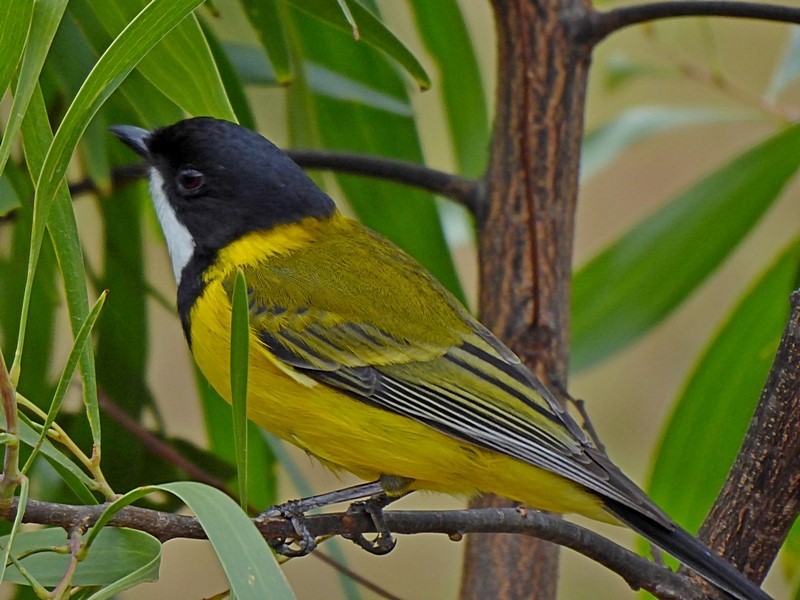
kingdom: Animalia
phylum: Chordata
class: Aves
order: Passeriformes
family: Pachycephalidae
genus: Pachycephala
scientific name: Pachycephala pectoralis
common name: Australian golden whistler
